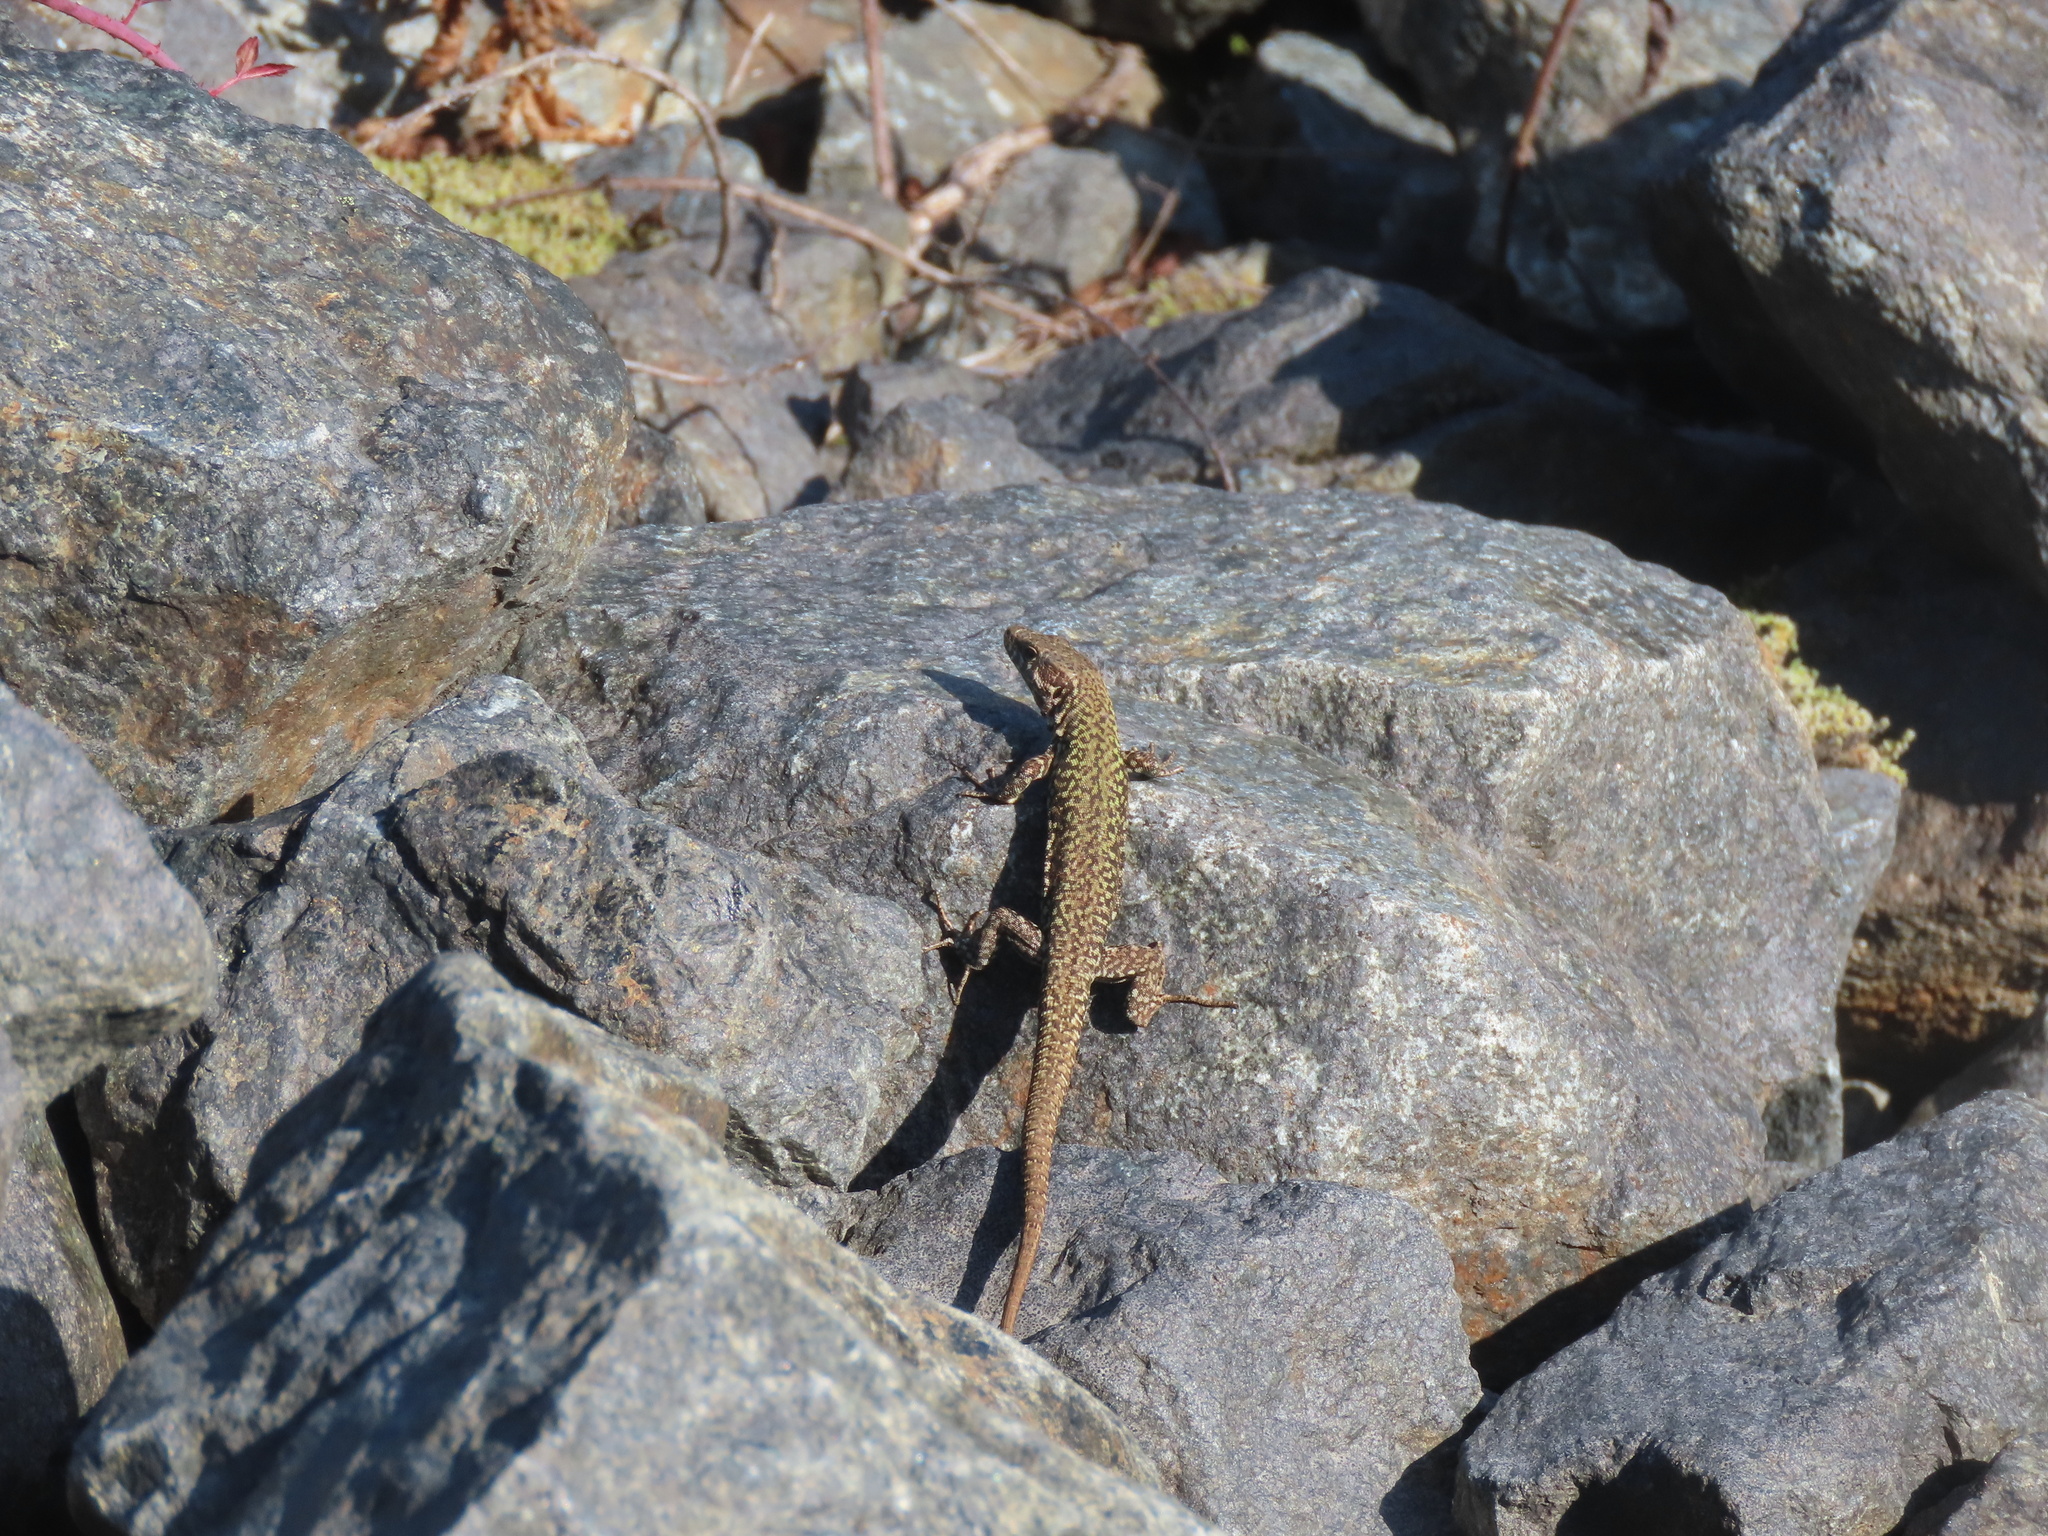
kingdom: Animalia
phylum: Chordata
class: Squamata
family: Lacertidae
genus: Podarcis
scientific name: Podarcis muralis
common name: Common wall lizard
